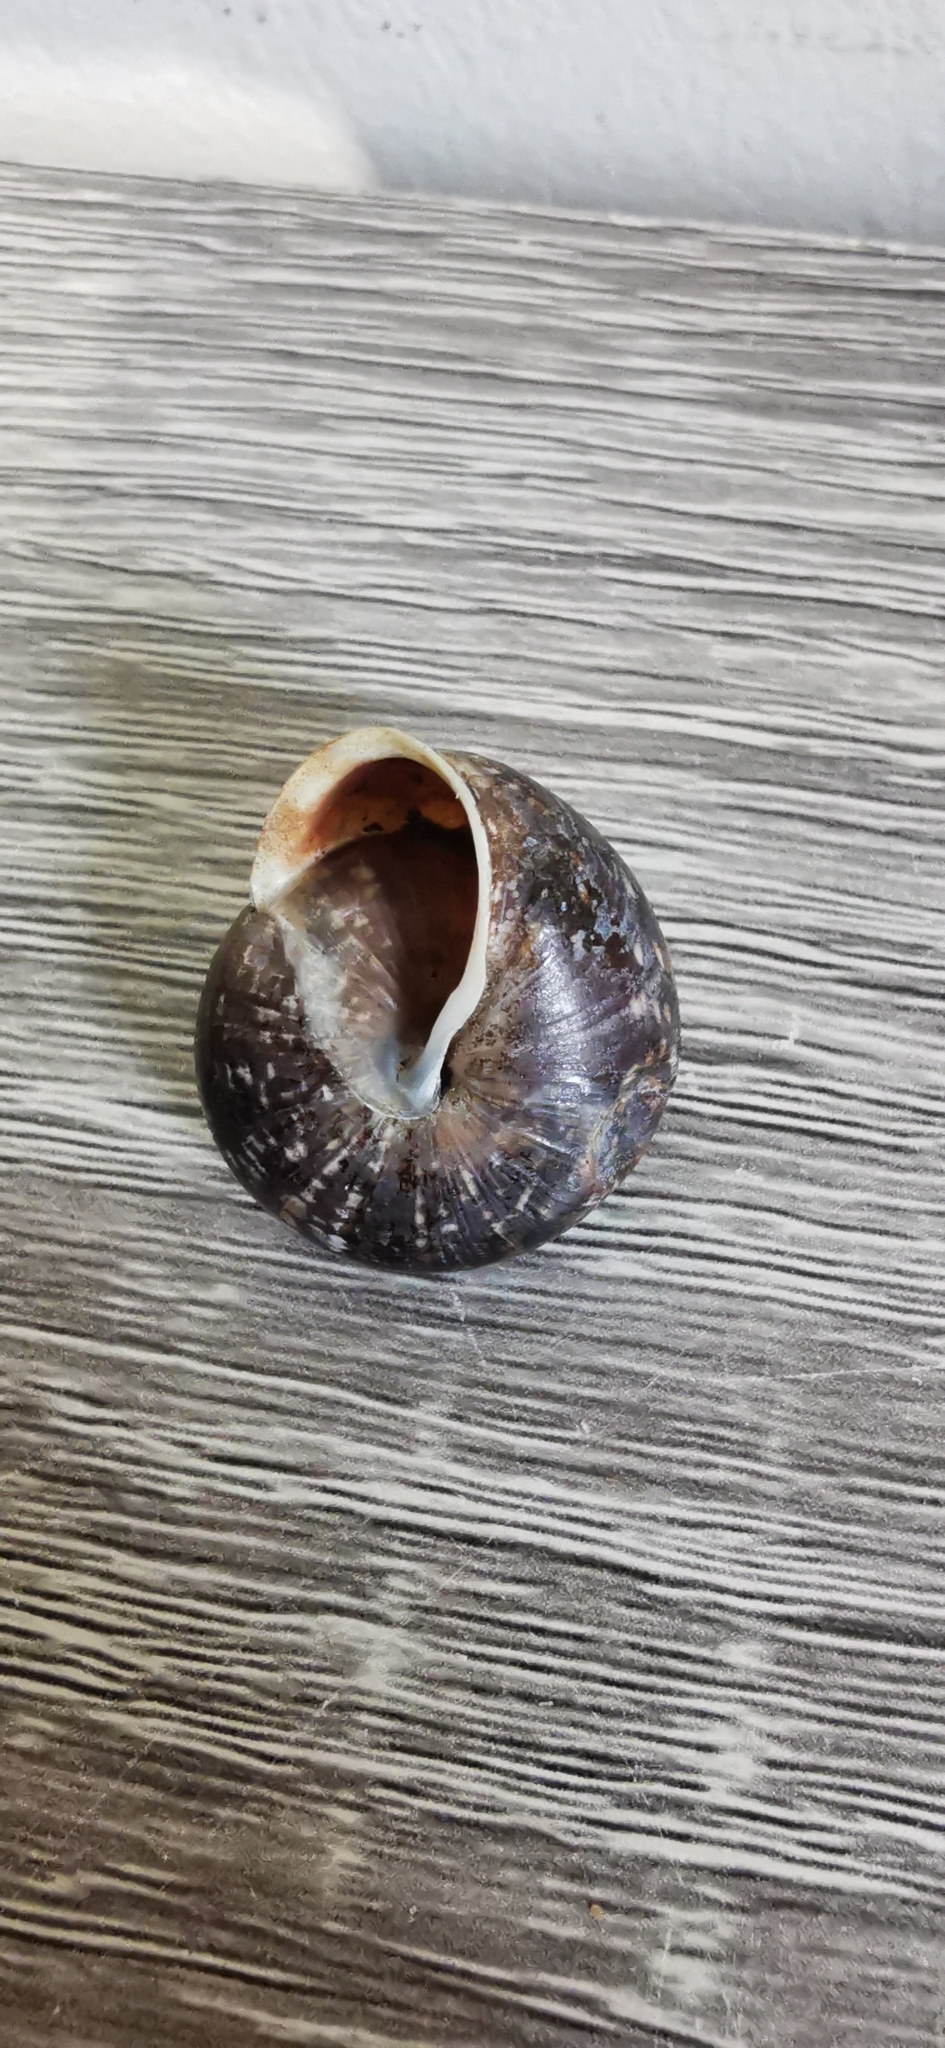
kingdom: Animalia
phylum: Mollusca
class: Gastropoda
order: Stylommatophora
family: Helicidae
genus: Arianta
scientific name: Arianta arbustorum
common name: Copse snail
